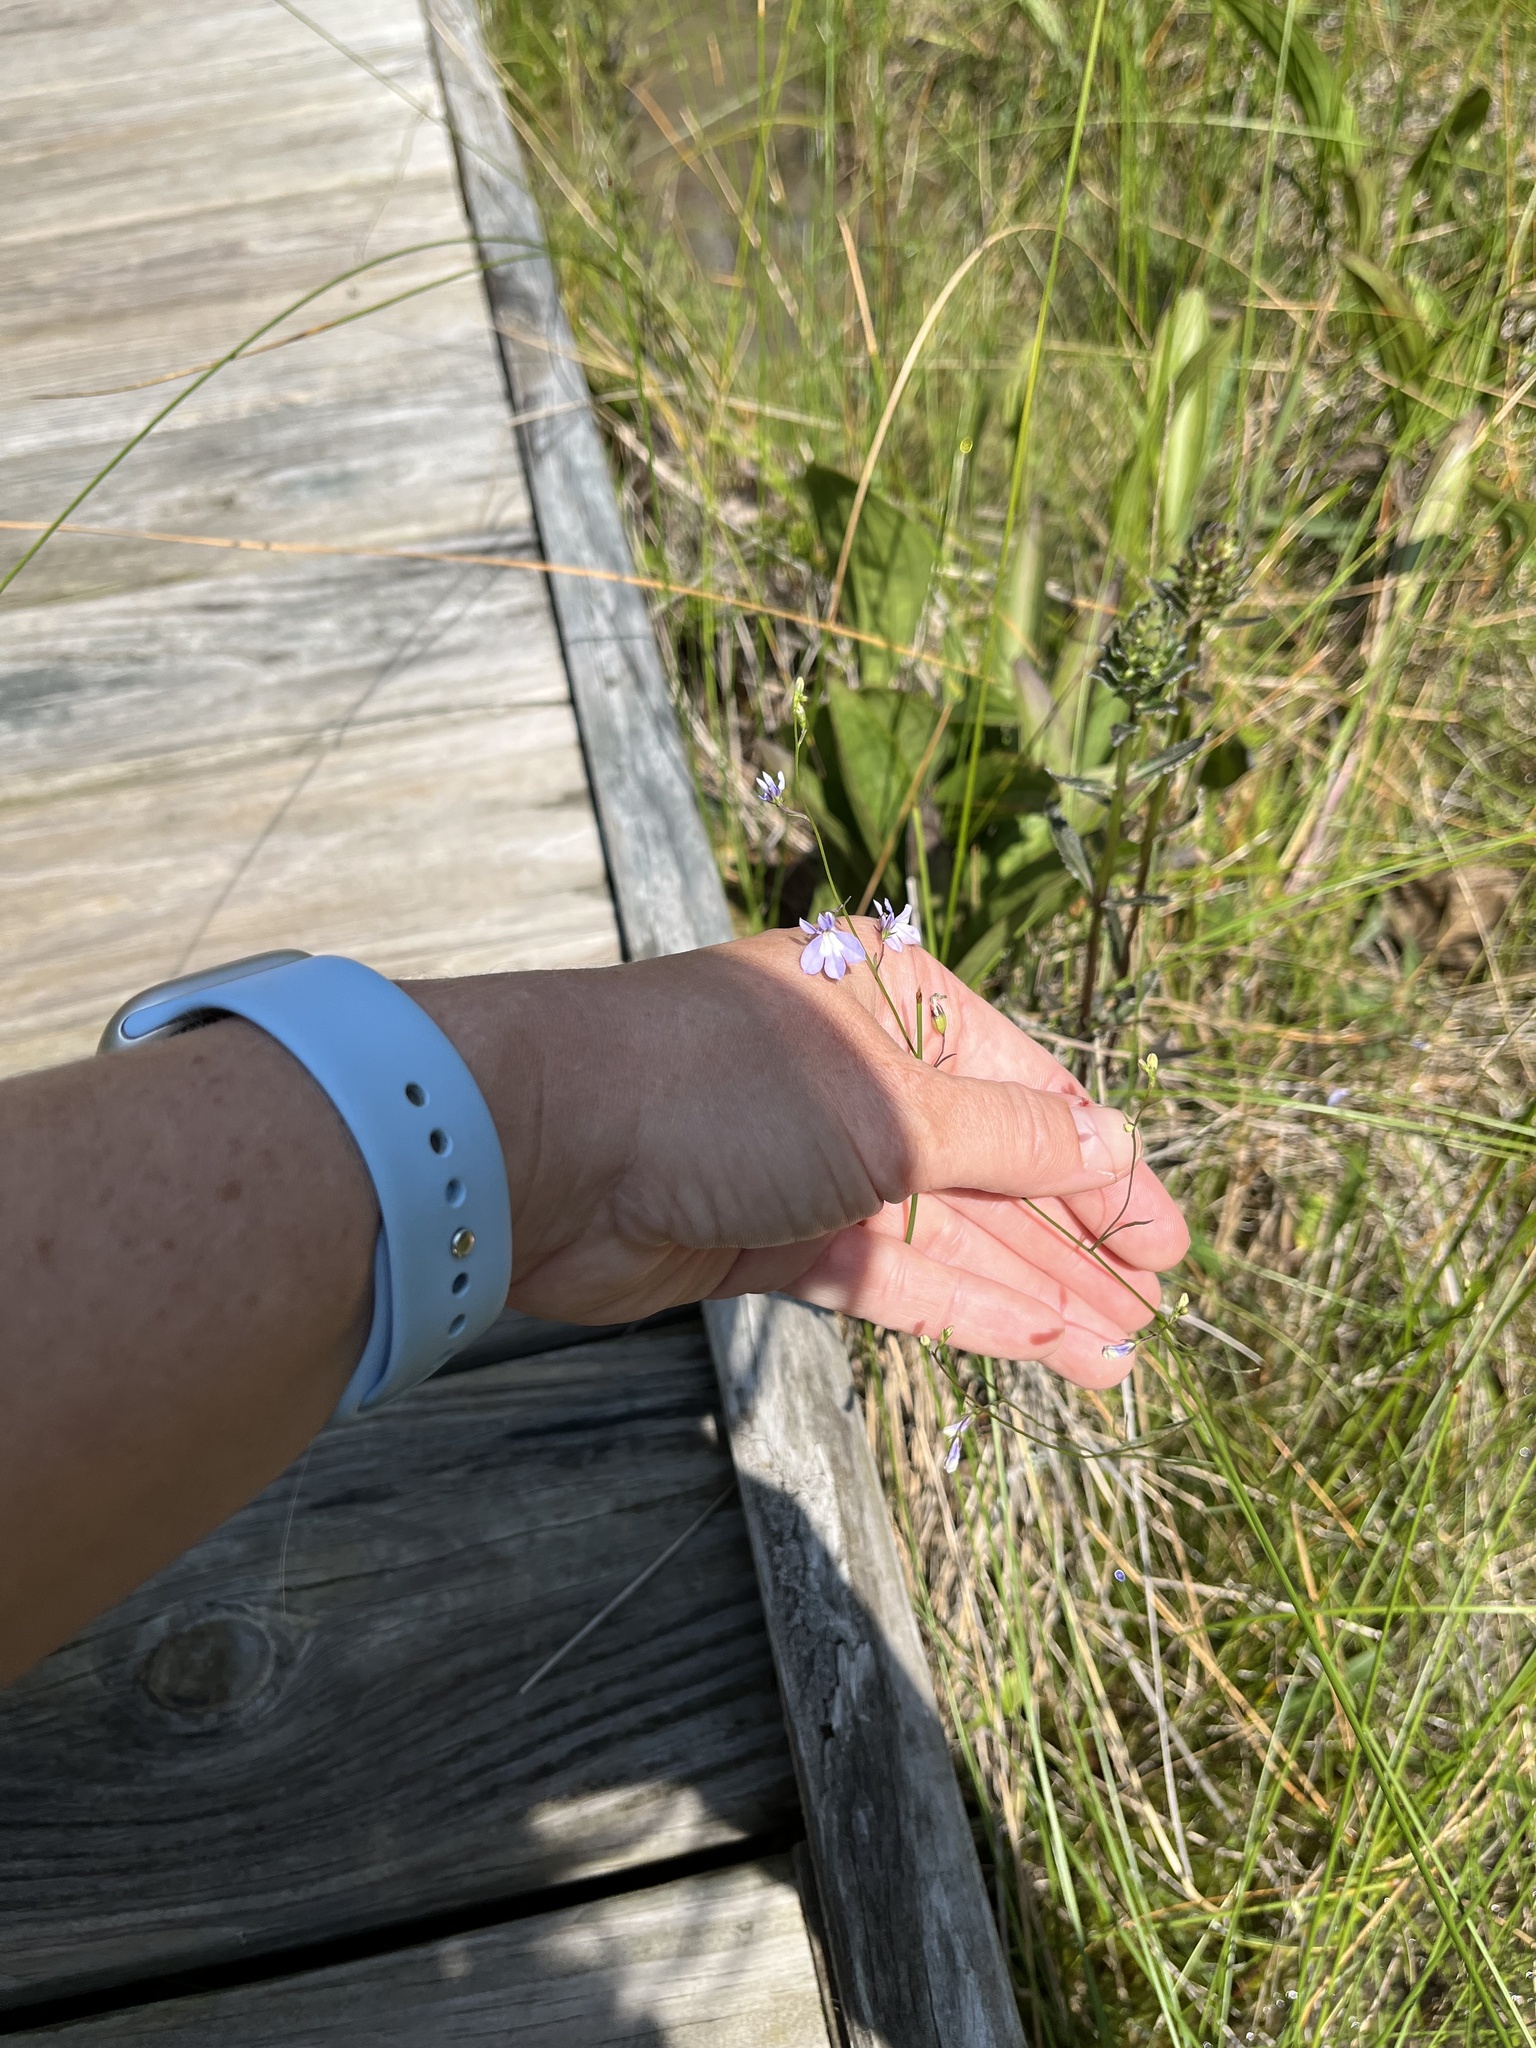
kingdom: Plantae
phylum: Tracheophyta
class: Magnoliopsida
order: Asterales
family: Campanulaceae
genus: Lobelia
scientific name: Lobelia kalmii
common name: Kalm's lobelia
